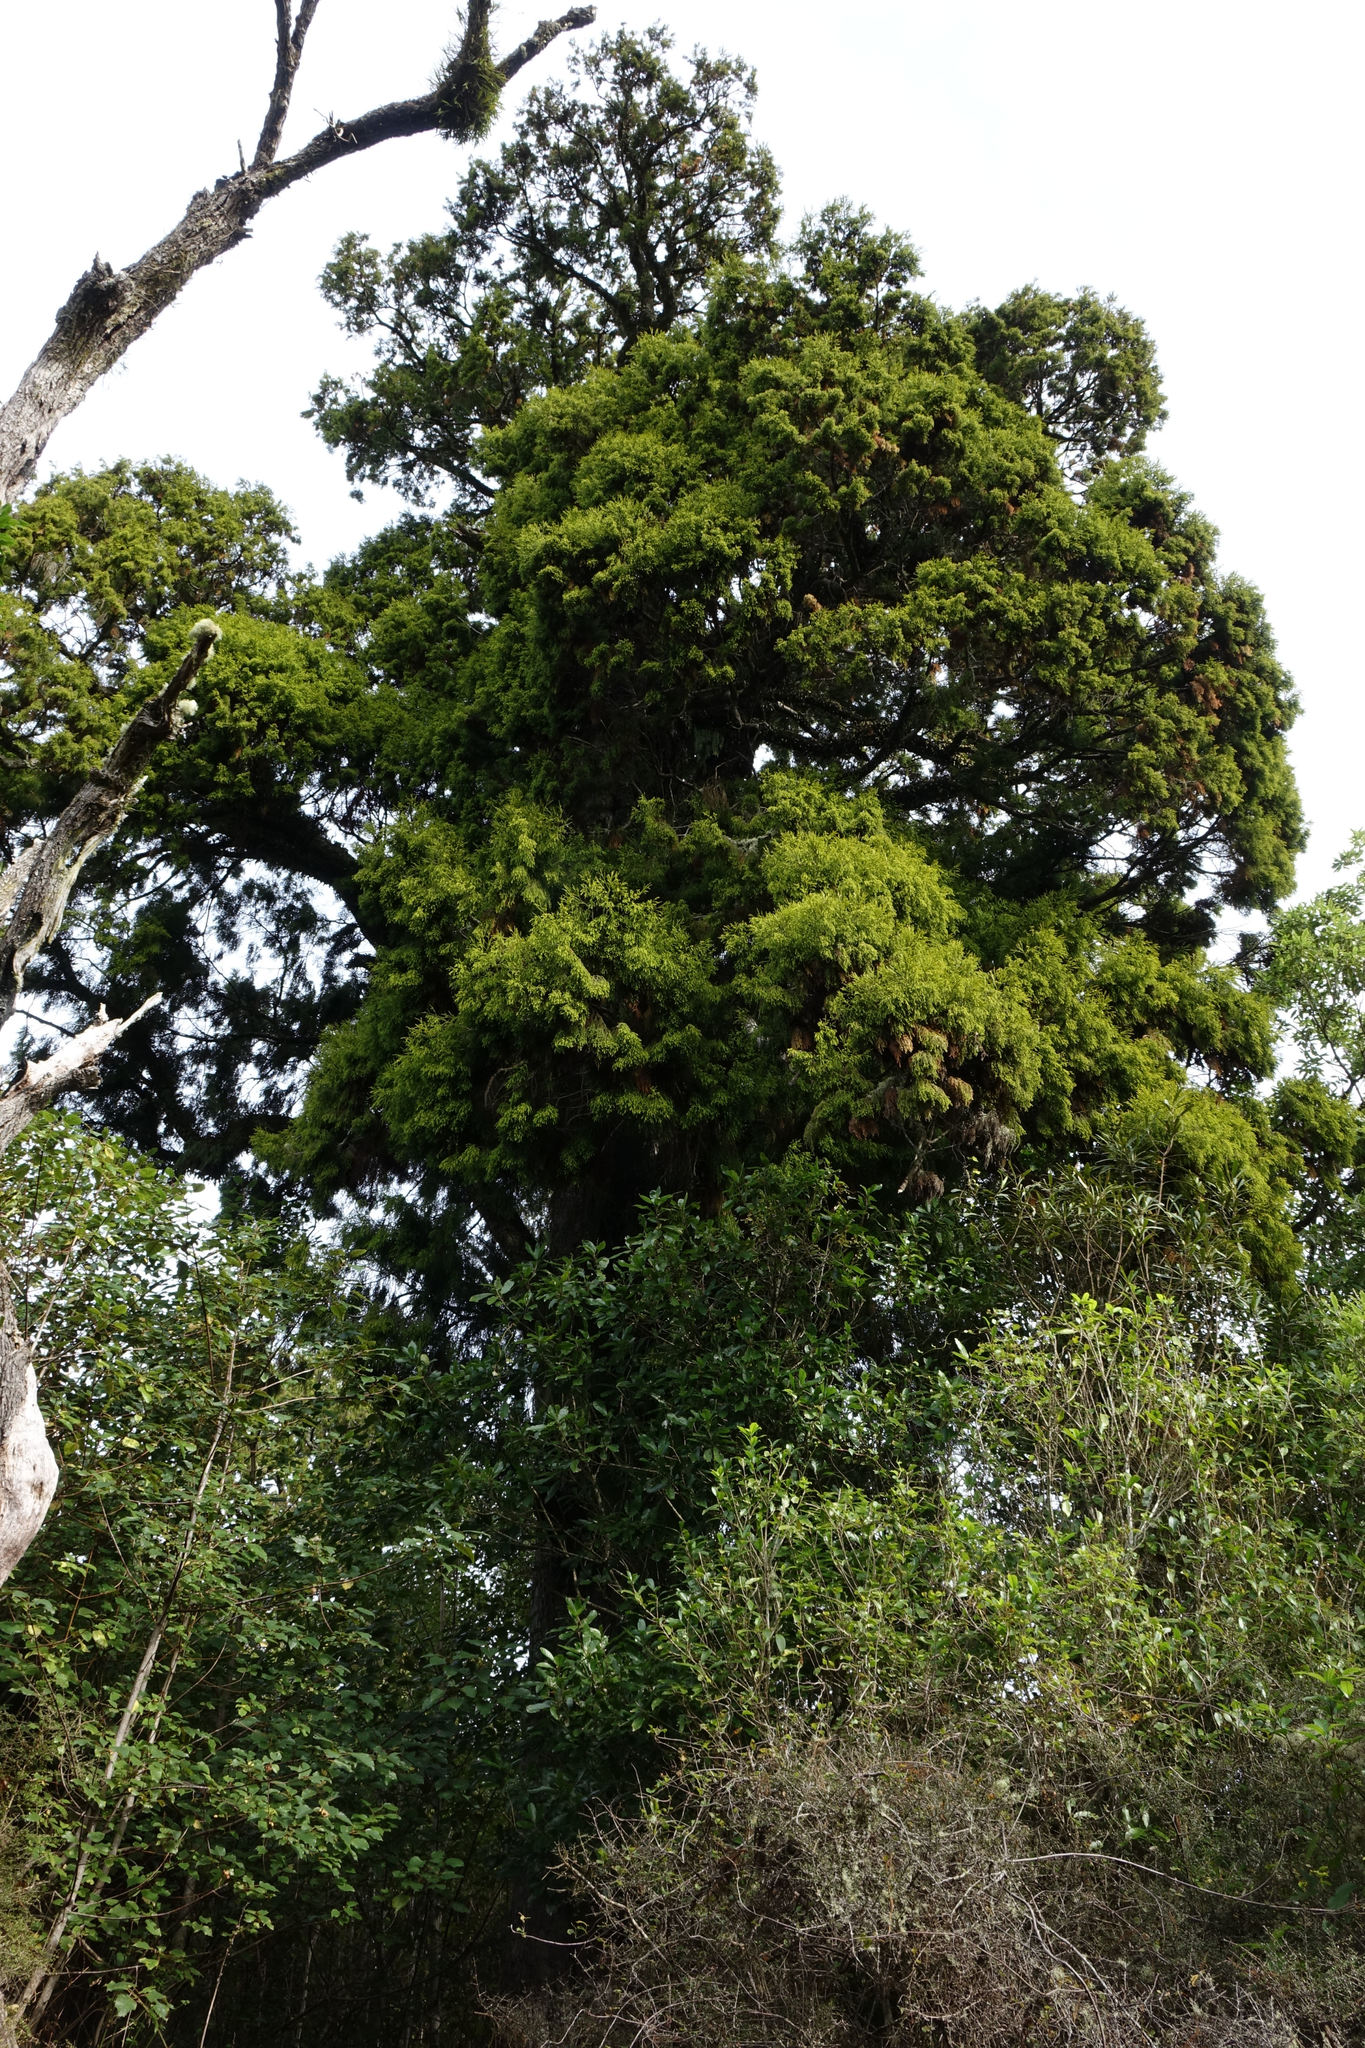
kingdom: Plantae
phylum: Tracheophyta
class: Pinopsida
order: Pinales
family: Podocarpaceae
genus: Dacrydium
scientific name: Dacrydium cupressinum
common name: Red pine
